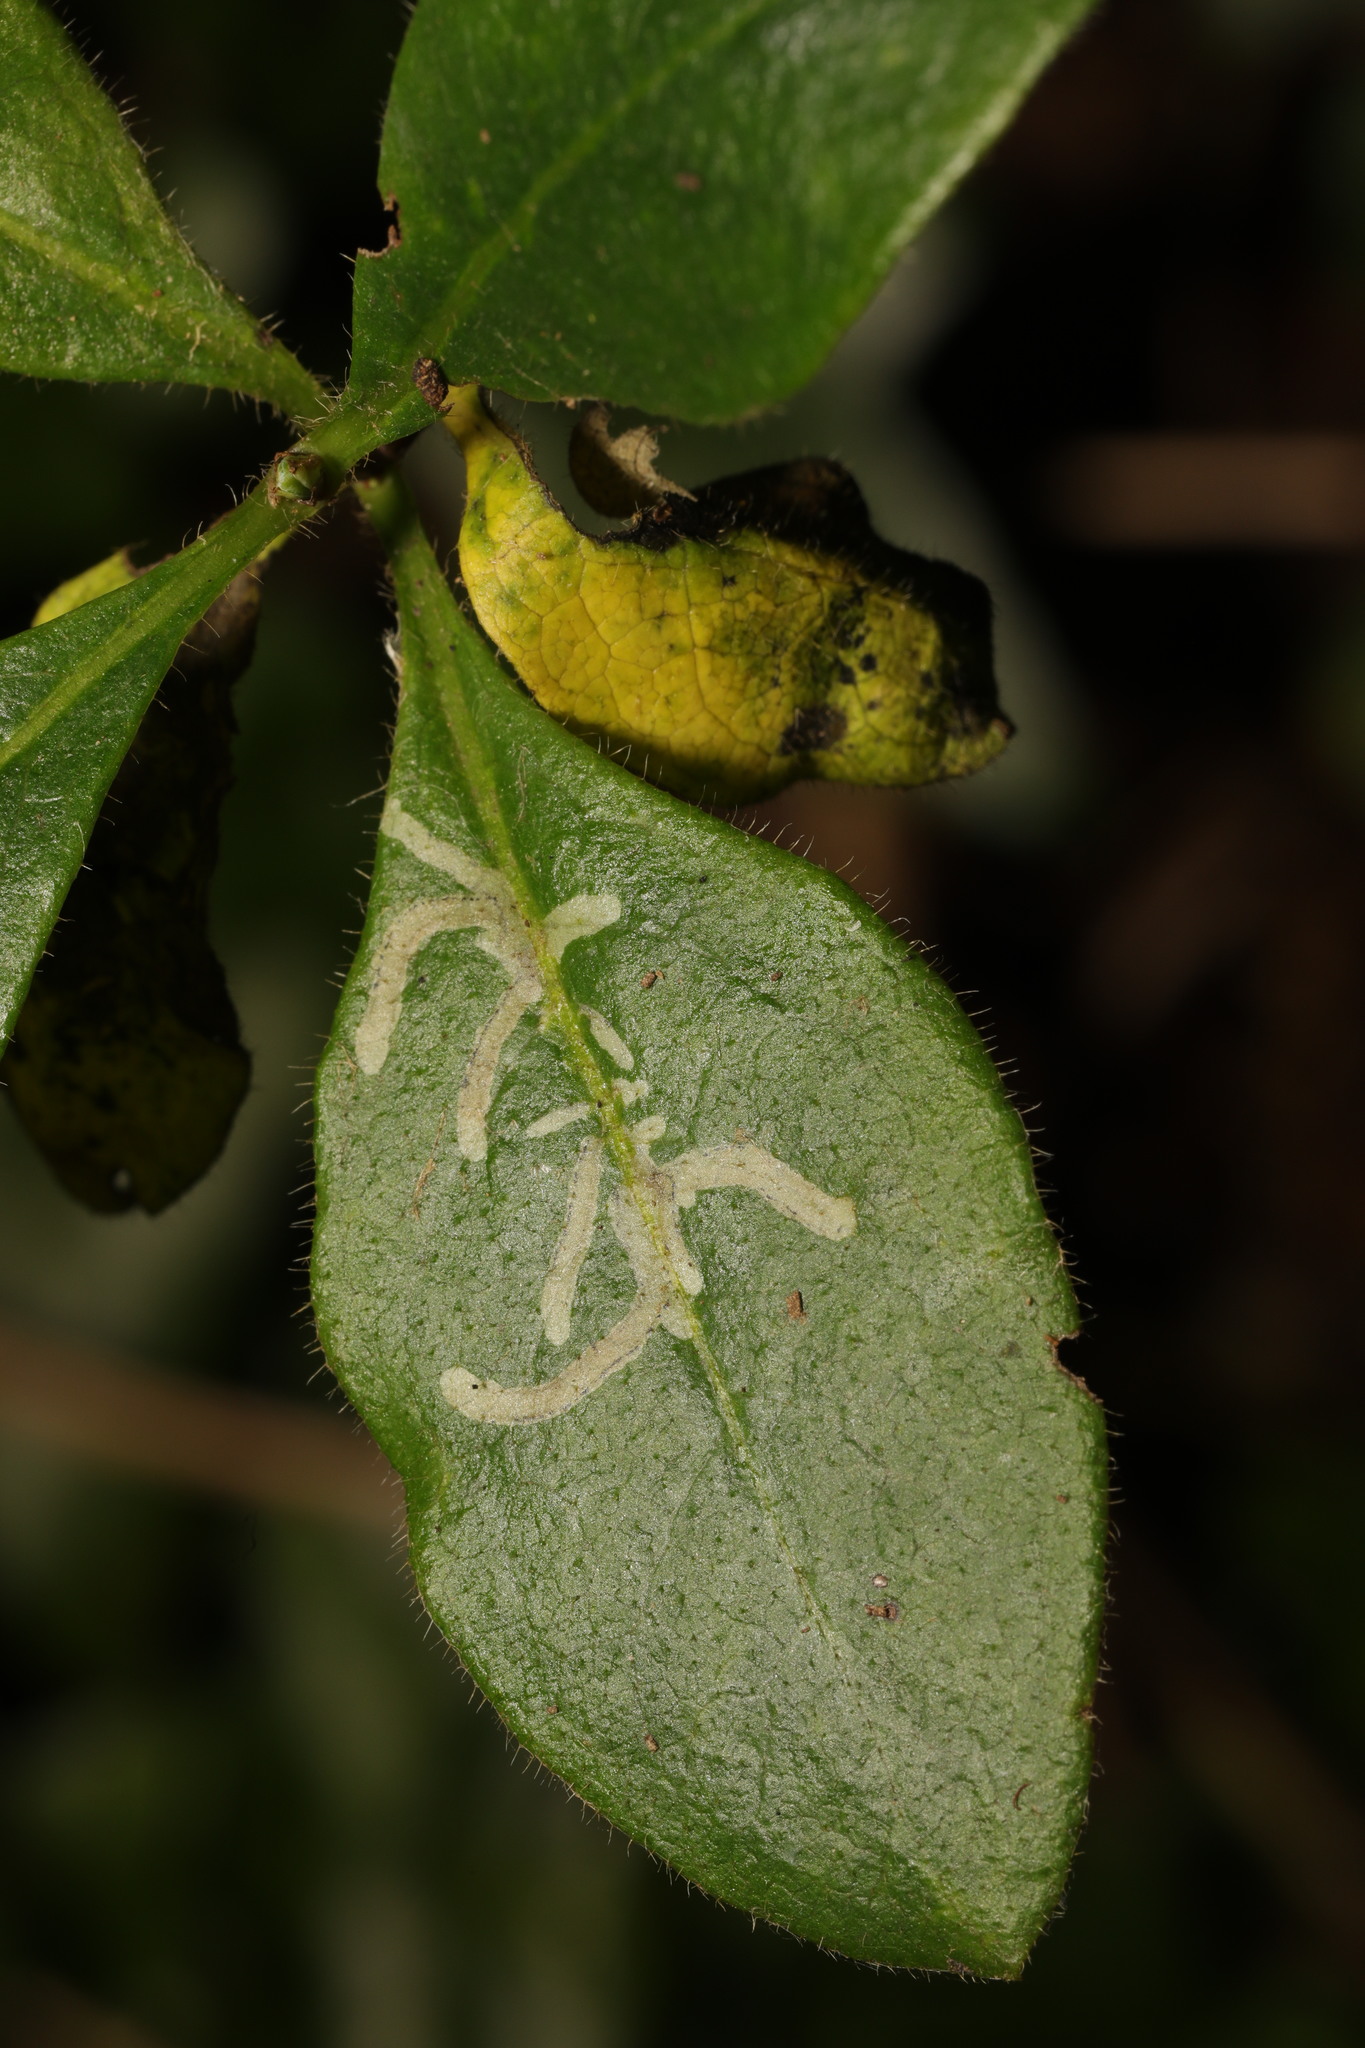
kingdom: Animalia
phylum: Arthropoda
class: Insecta
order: Diptera
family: Agromyzidae
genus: Phytomyza
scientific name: Phytomyza aprilina
